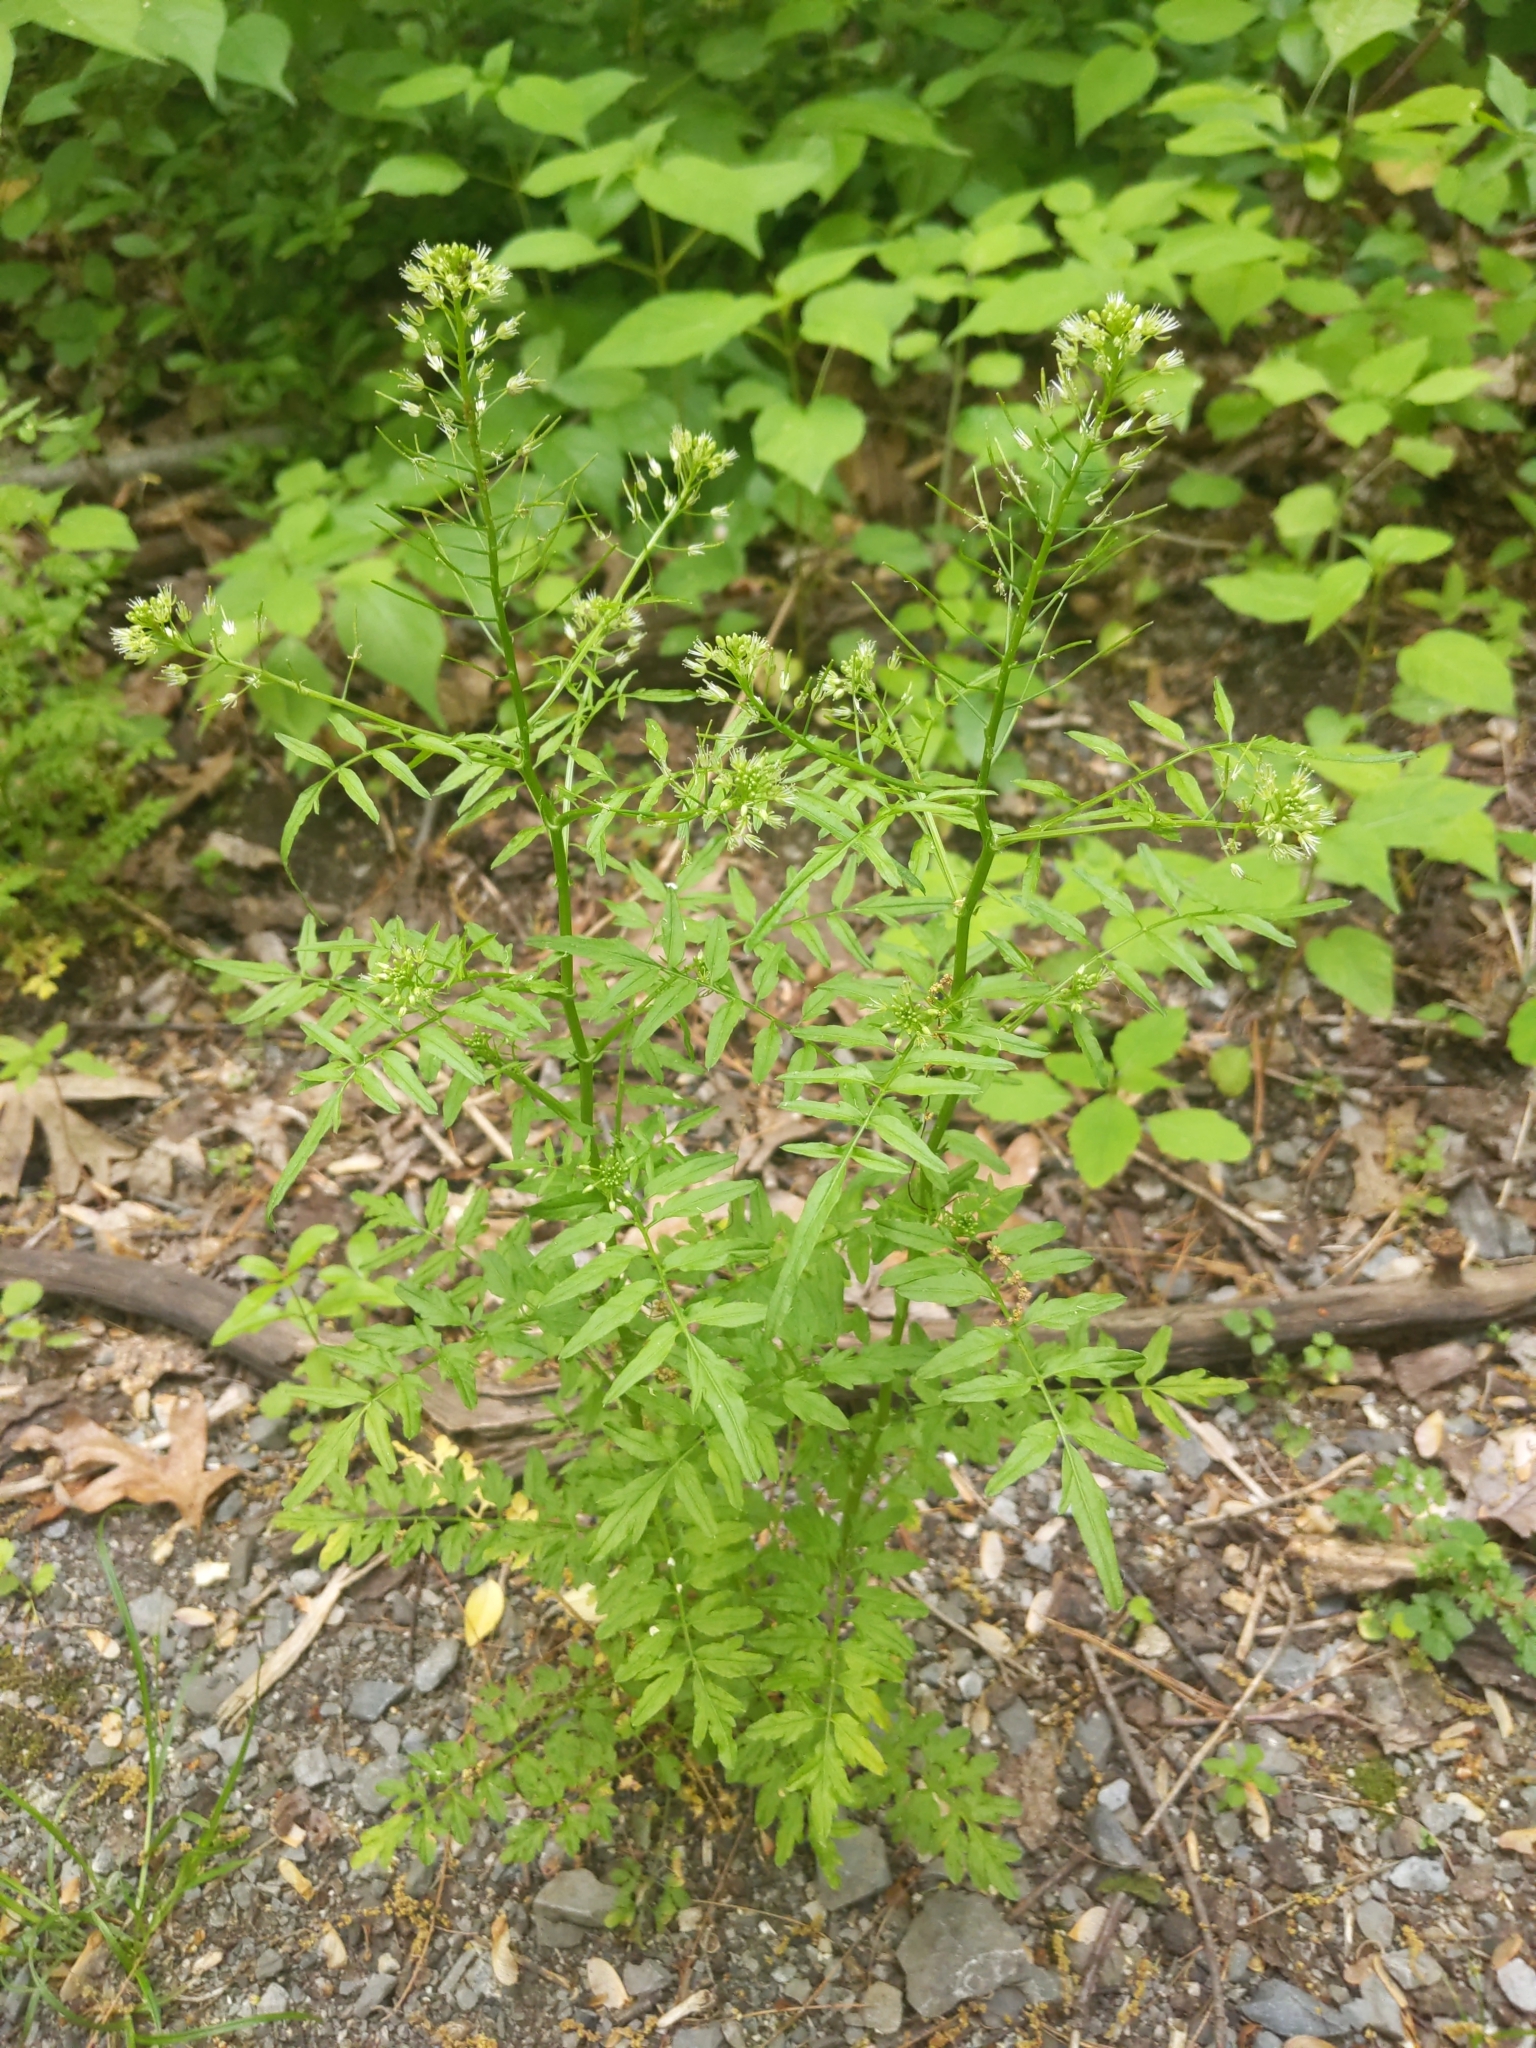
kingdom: Plantae
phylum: Tracheophyta
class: Magnoliopsida
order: Brassicales
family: Brassicaceae
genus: Cardamine
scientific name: Cardamine impatiens
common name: Narrow-leaved bitter-cress
